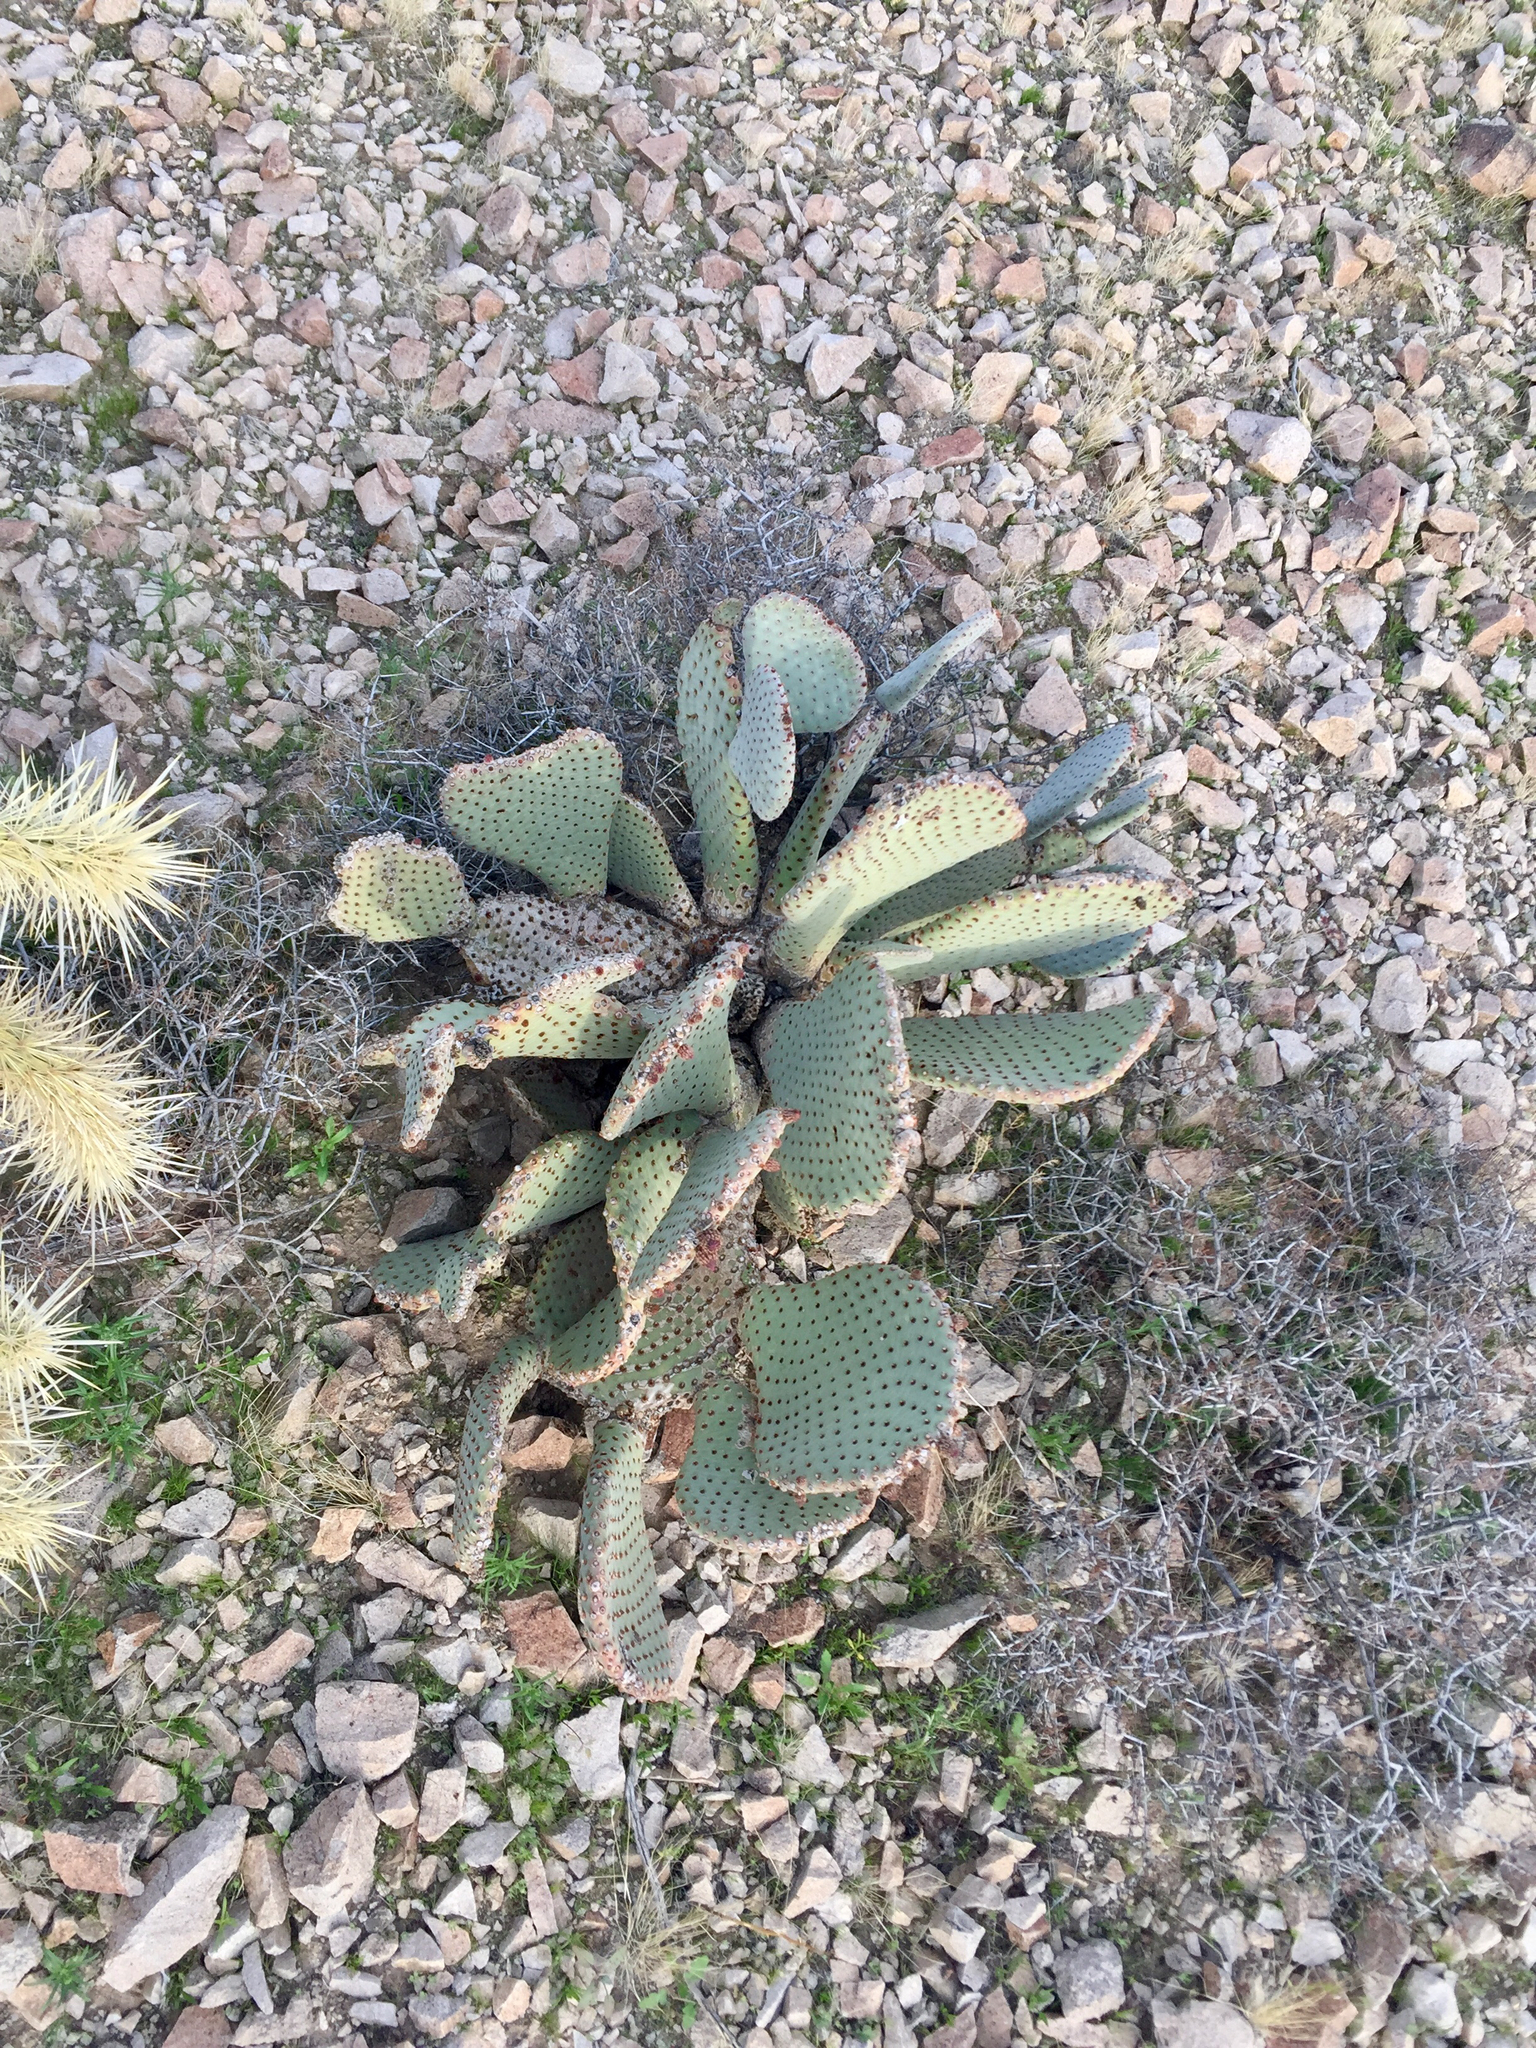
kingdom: Plantae
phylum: Tracheophyta
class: Magnoliopsida
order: Caryophyllales
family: Cactaceae
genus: Opuntia
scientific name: Opuntia basilaris
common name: Beavertail prickly-pear
